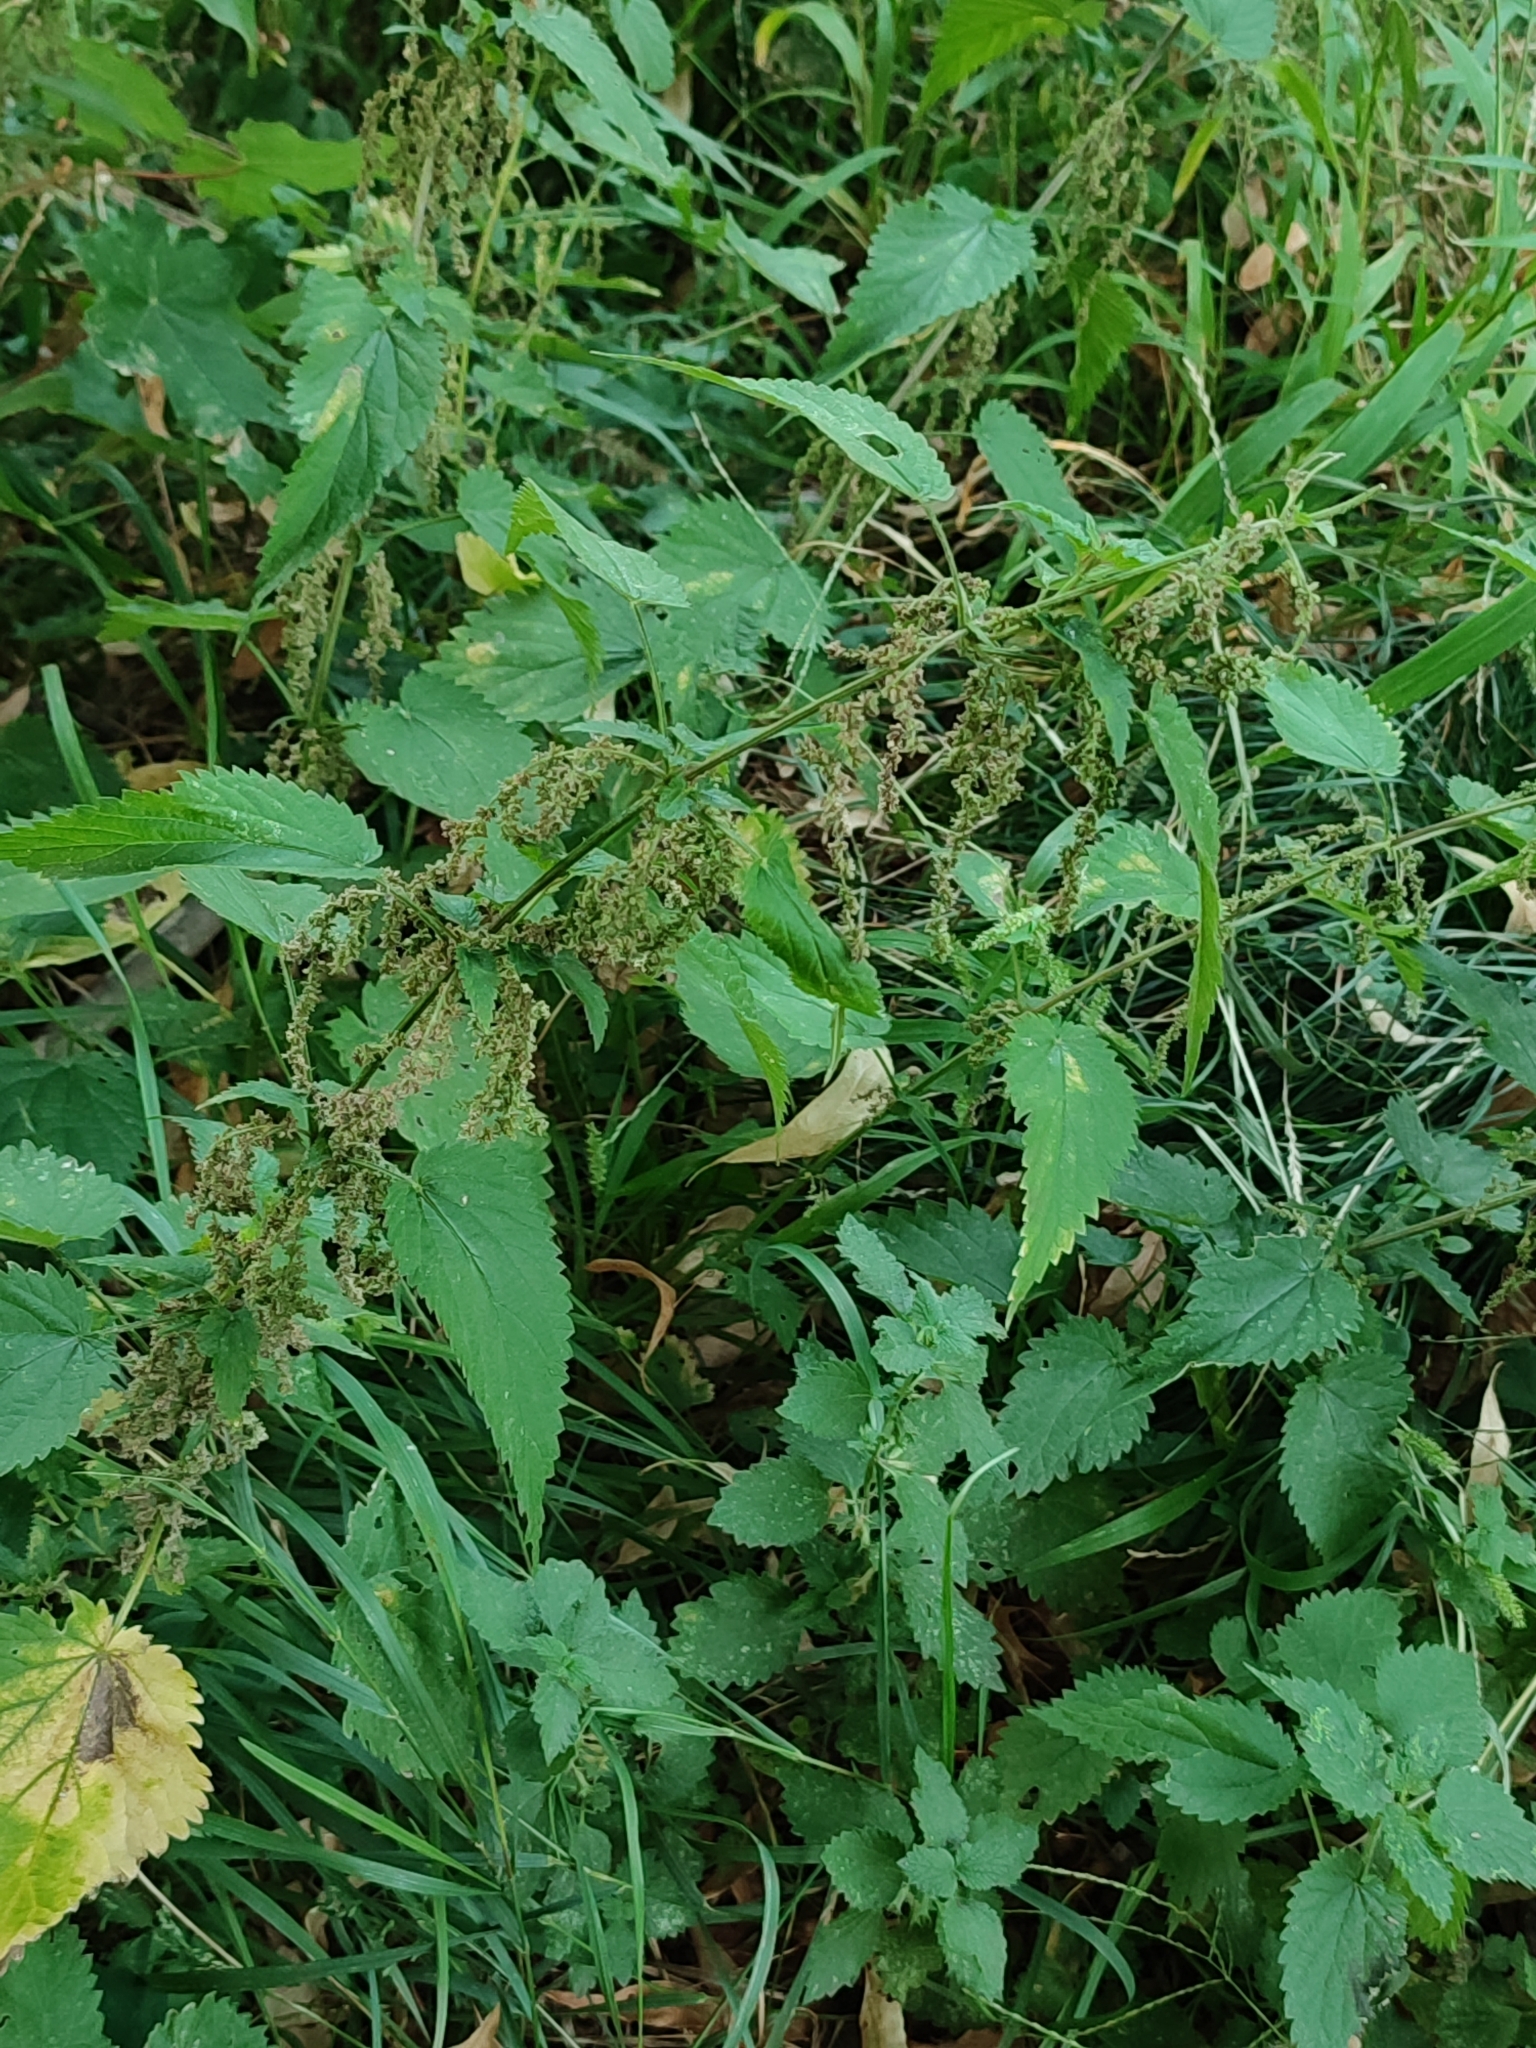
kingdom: Plantae
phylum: Tracheophyta
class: Magnoliopsida
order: Rosales
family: Urticaceae
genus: Urtica
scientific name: Urtica dioica
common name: Common nettle
